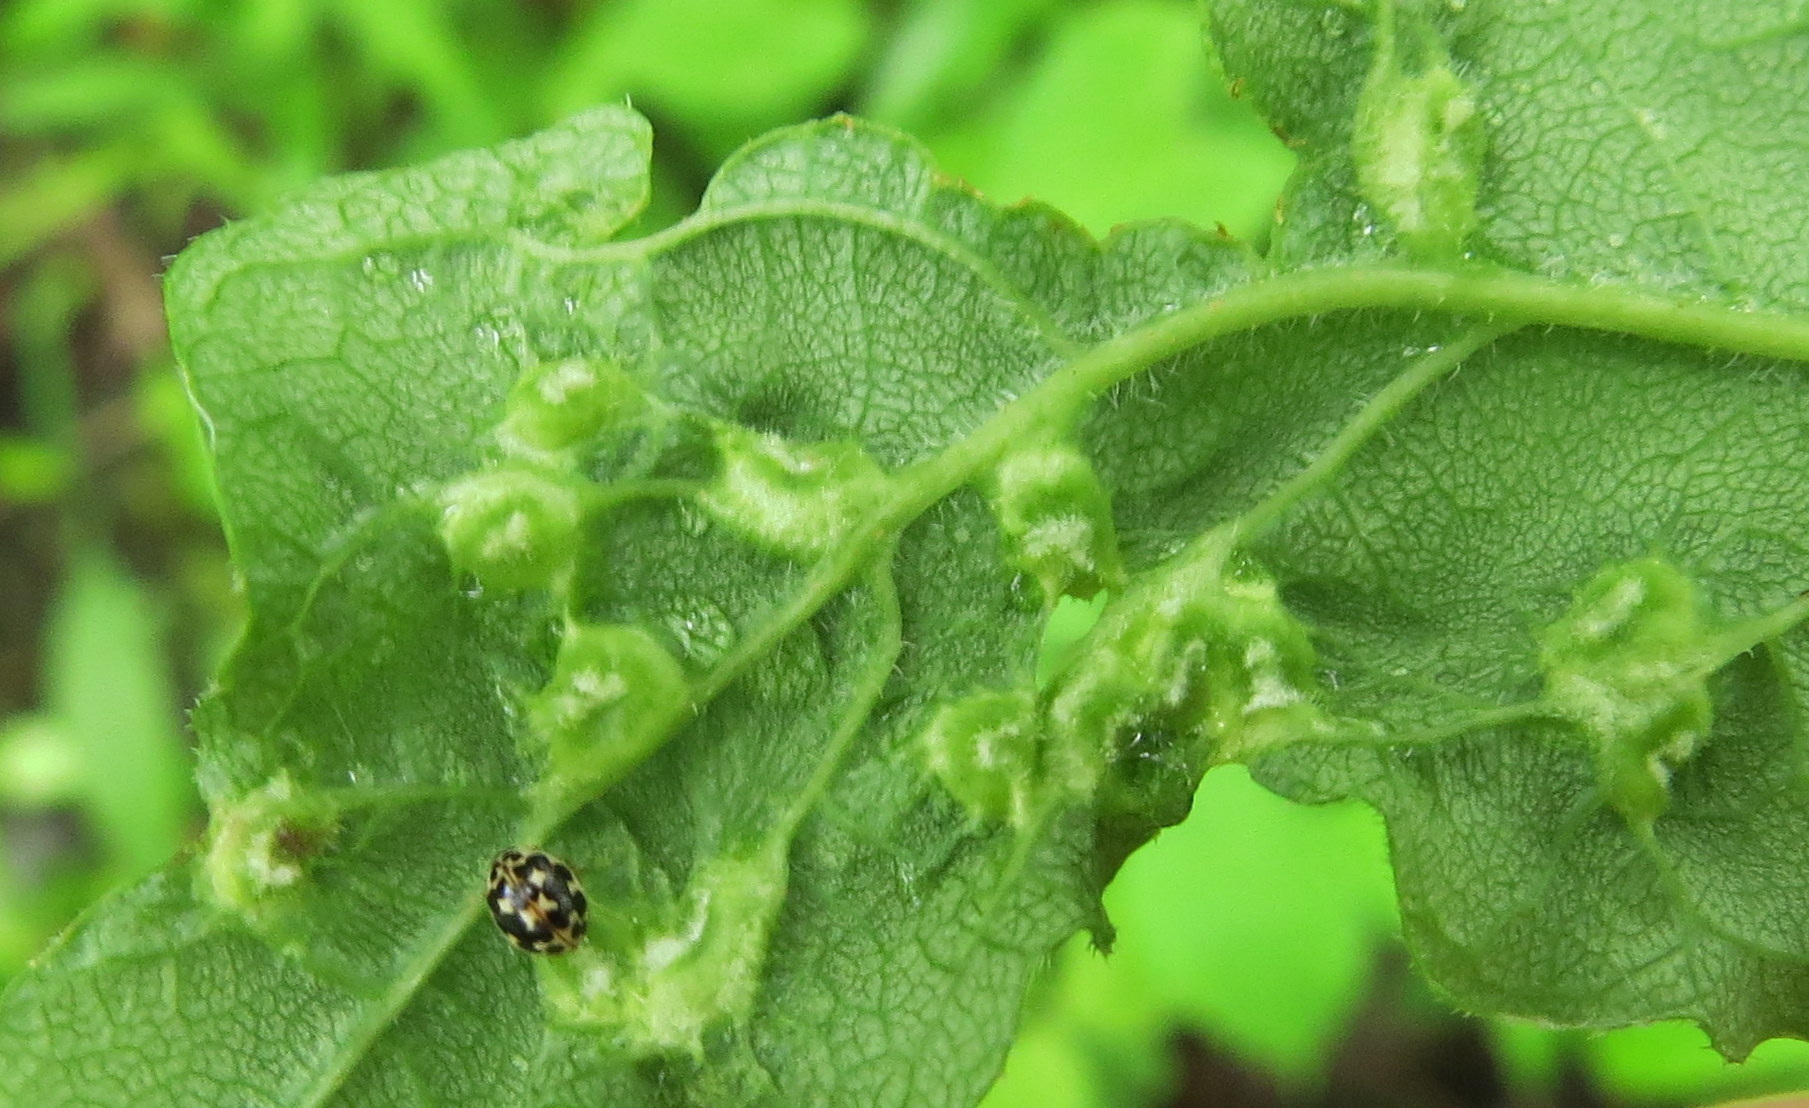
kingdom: Animalia
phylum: Arthropoda
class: Arachnida
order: Trombidiformes
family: Eriophyidae
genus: Aceria
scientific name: Aceria fraxinicola
